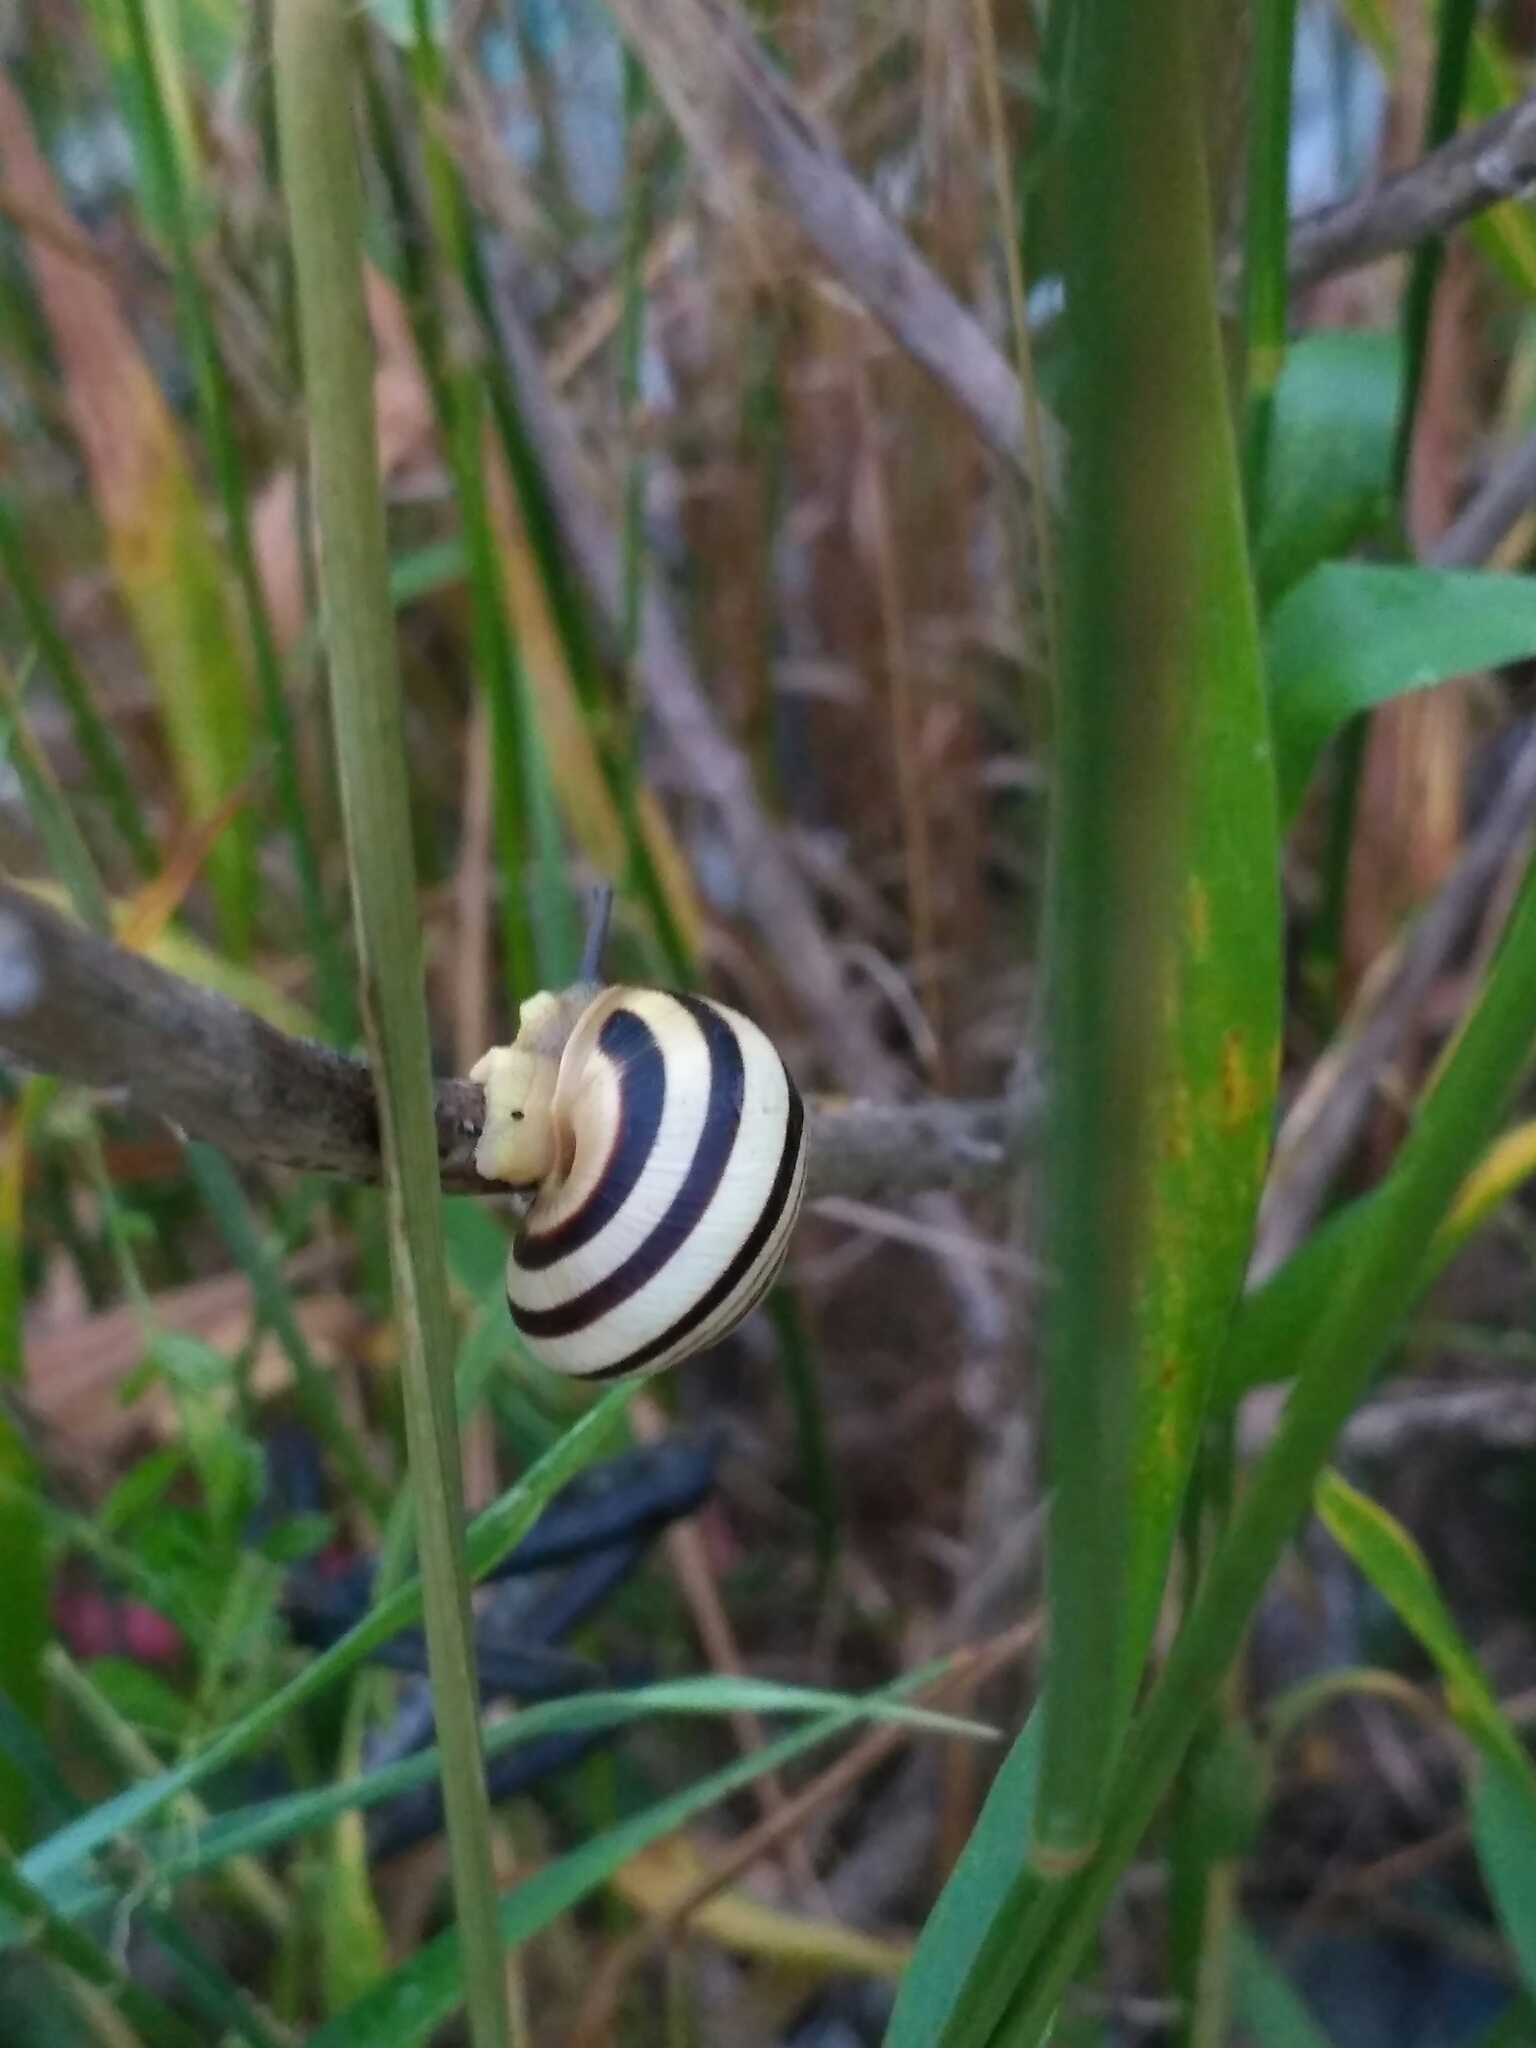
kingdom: Animalia
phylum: Mollusca
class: Gastropoda
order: Stylommatophora
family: Helicidae
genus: Caucasotachea
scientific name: Caucasotachea vindobonensis
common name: European helicid land snail
